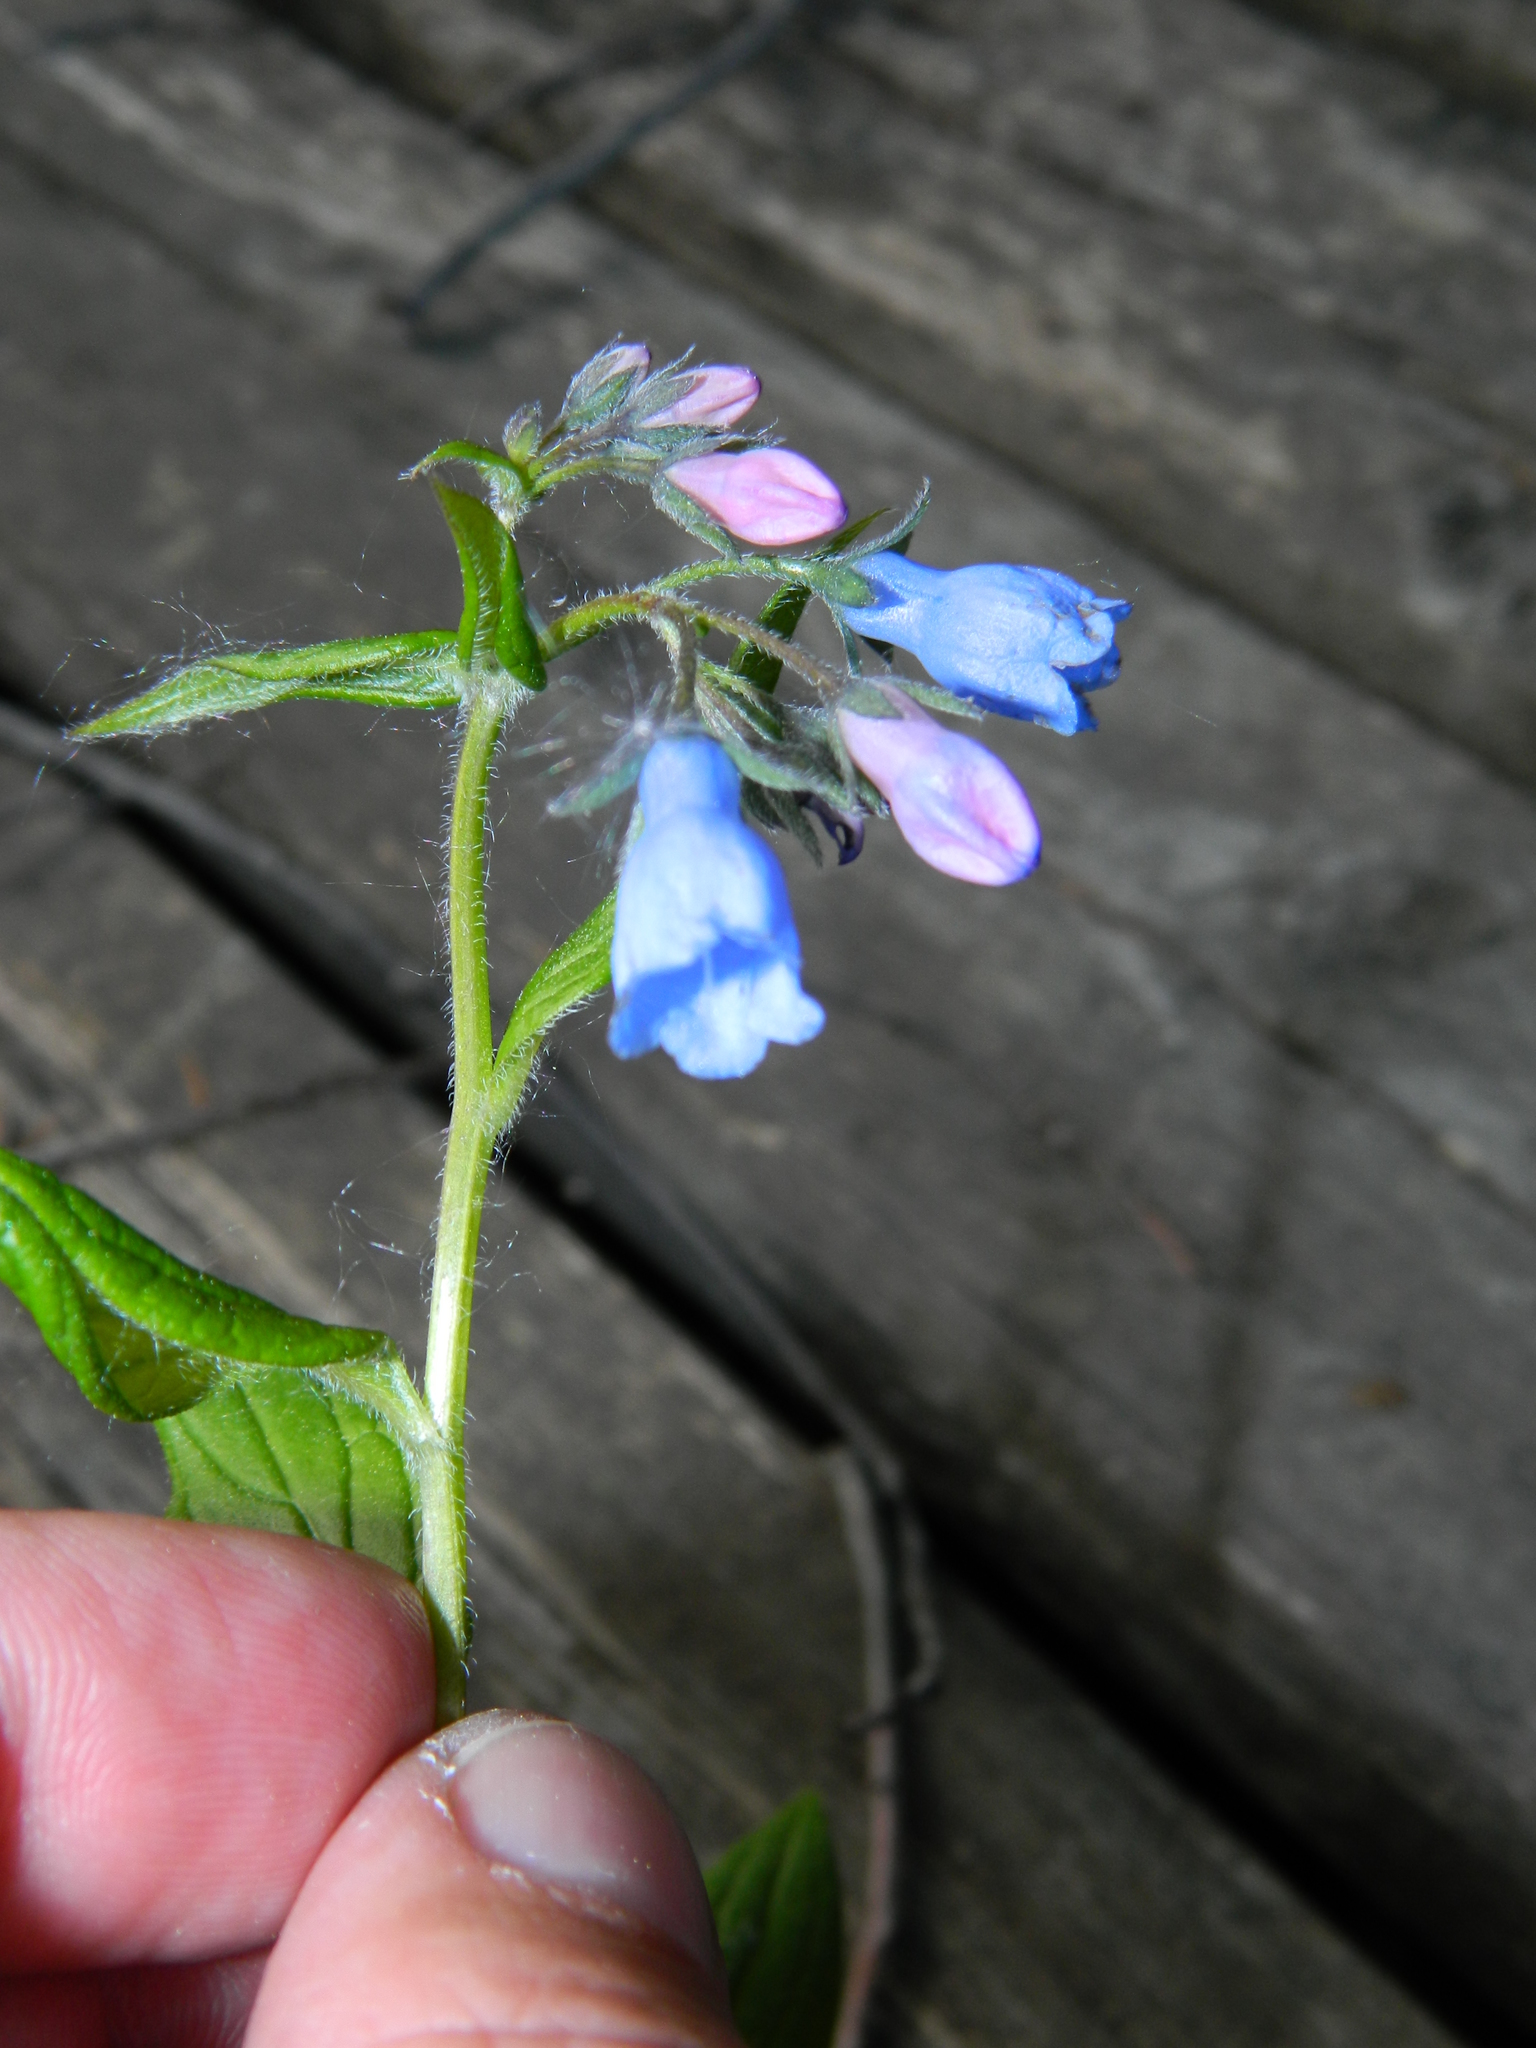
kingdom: Plantae
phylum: Tracheophyta
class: Magnoliopsida
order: Boraginales
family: Boraginaceae
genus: Mertensia
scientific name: Mertensia paniculata
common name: Panicled bluebells
